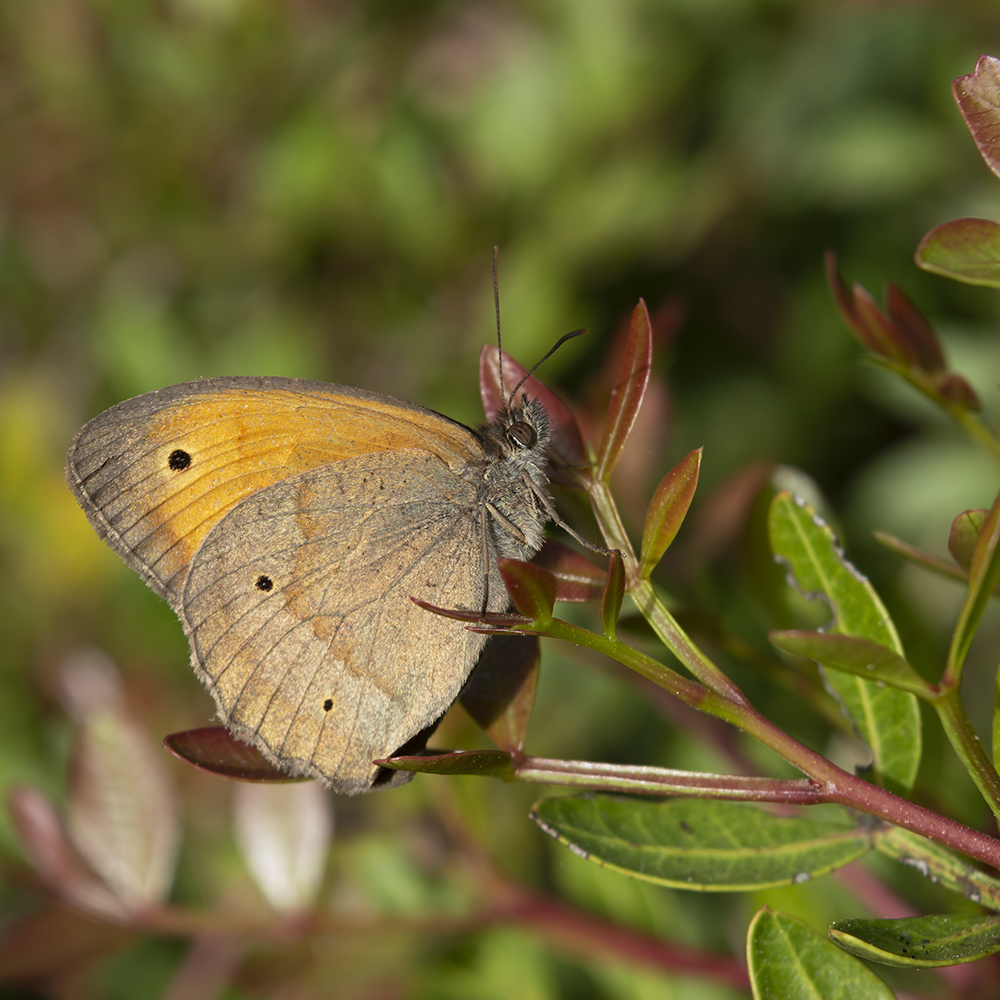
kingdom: Animalia
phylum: Arthropoda
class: Insecta
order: Lepidoptera
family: Nymphalidae
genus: Maniola
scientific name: Maniola jurtina
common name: Meadow brown
